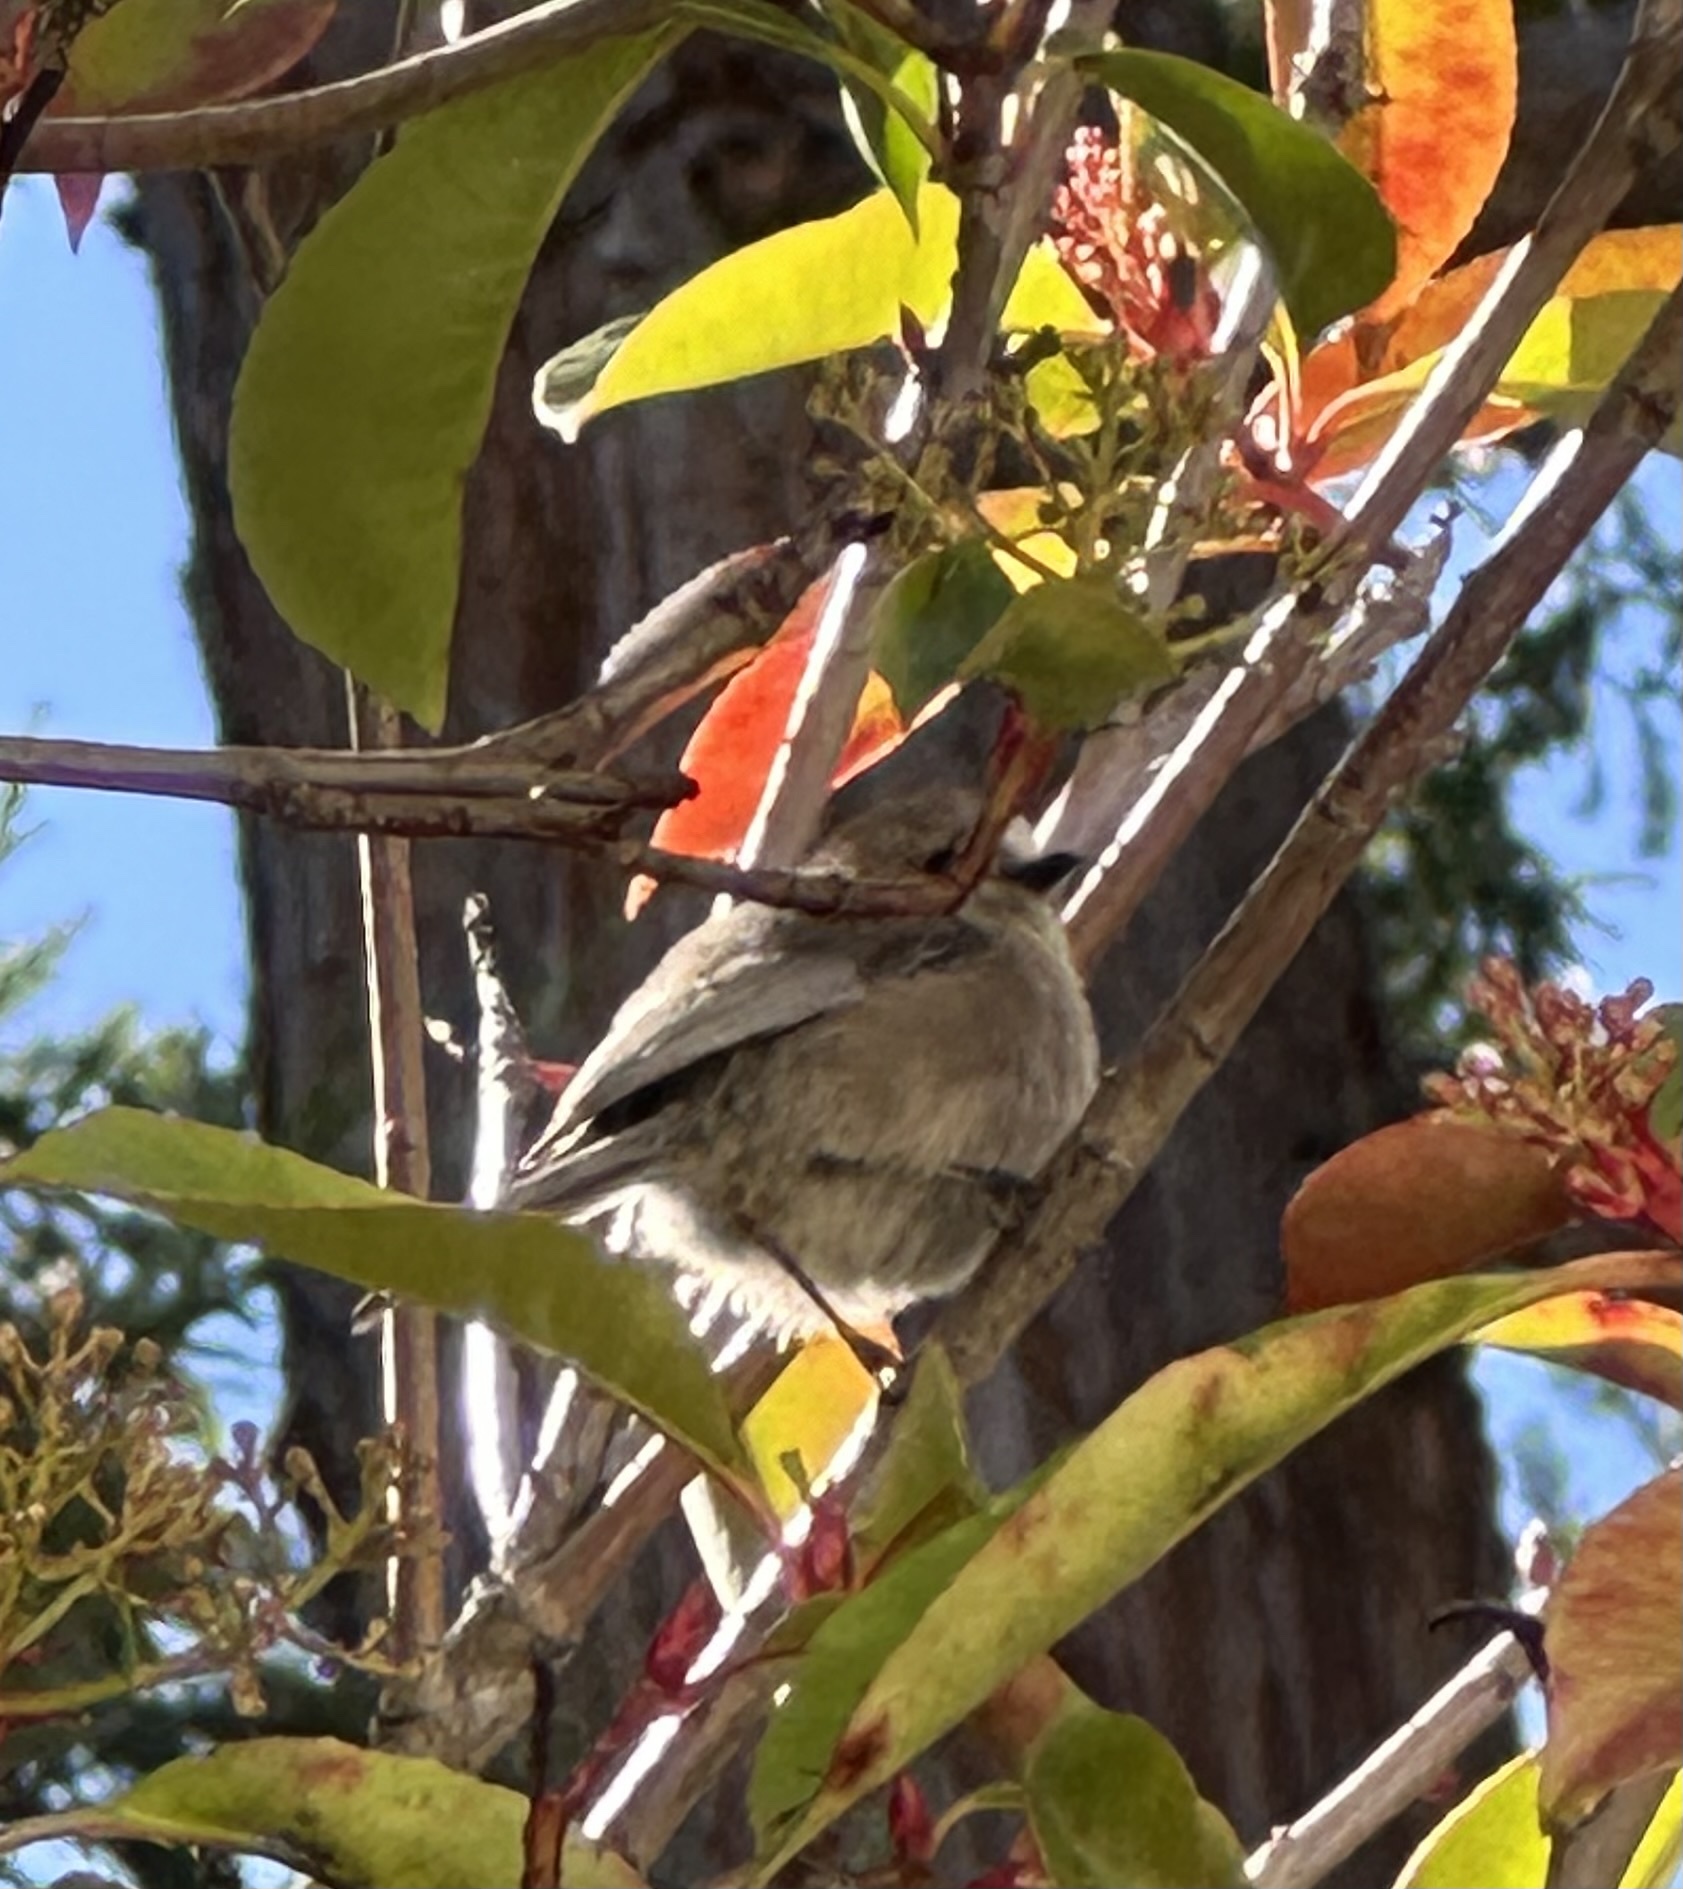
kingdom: Animalia
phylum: Chordata
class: Aves
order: Passeriformes
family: Aegithalidae
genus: Psaltriparus
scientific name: Psaltriparus minimus
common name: American bushtit
